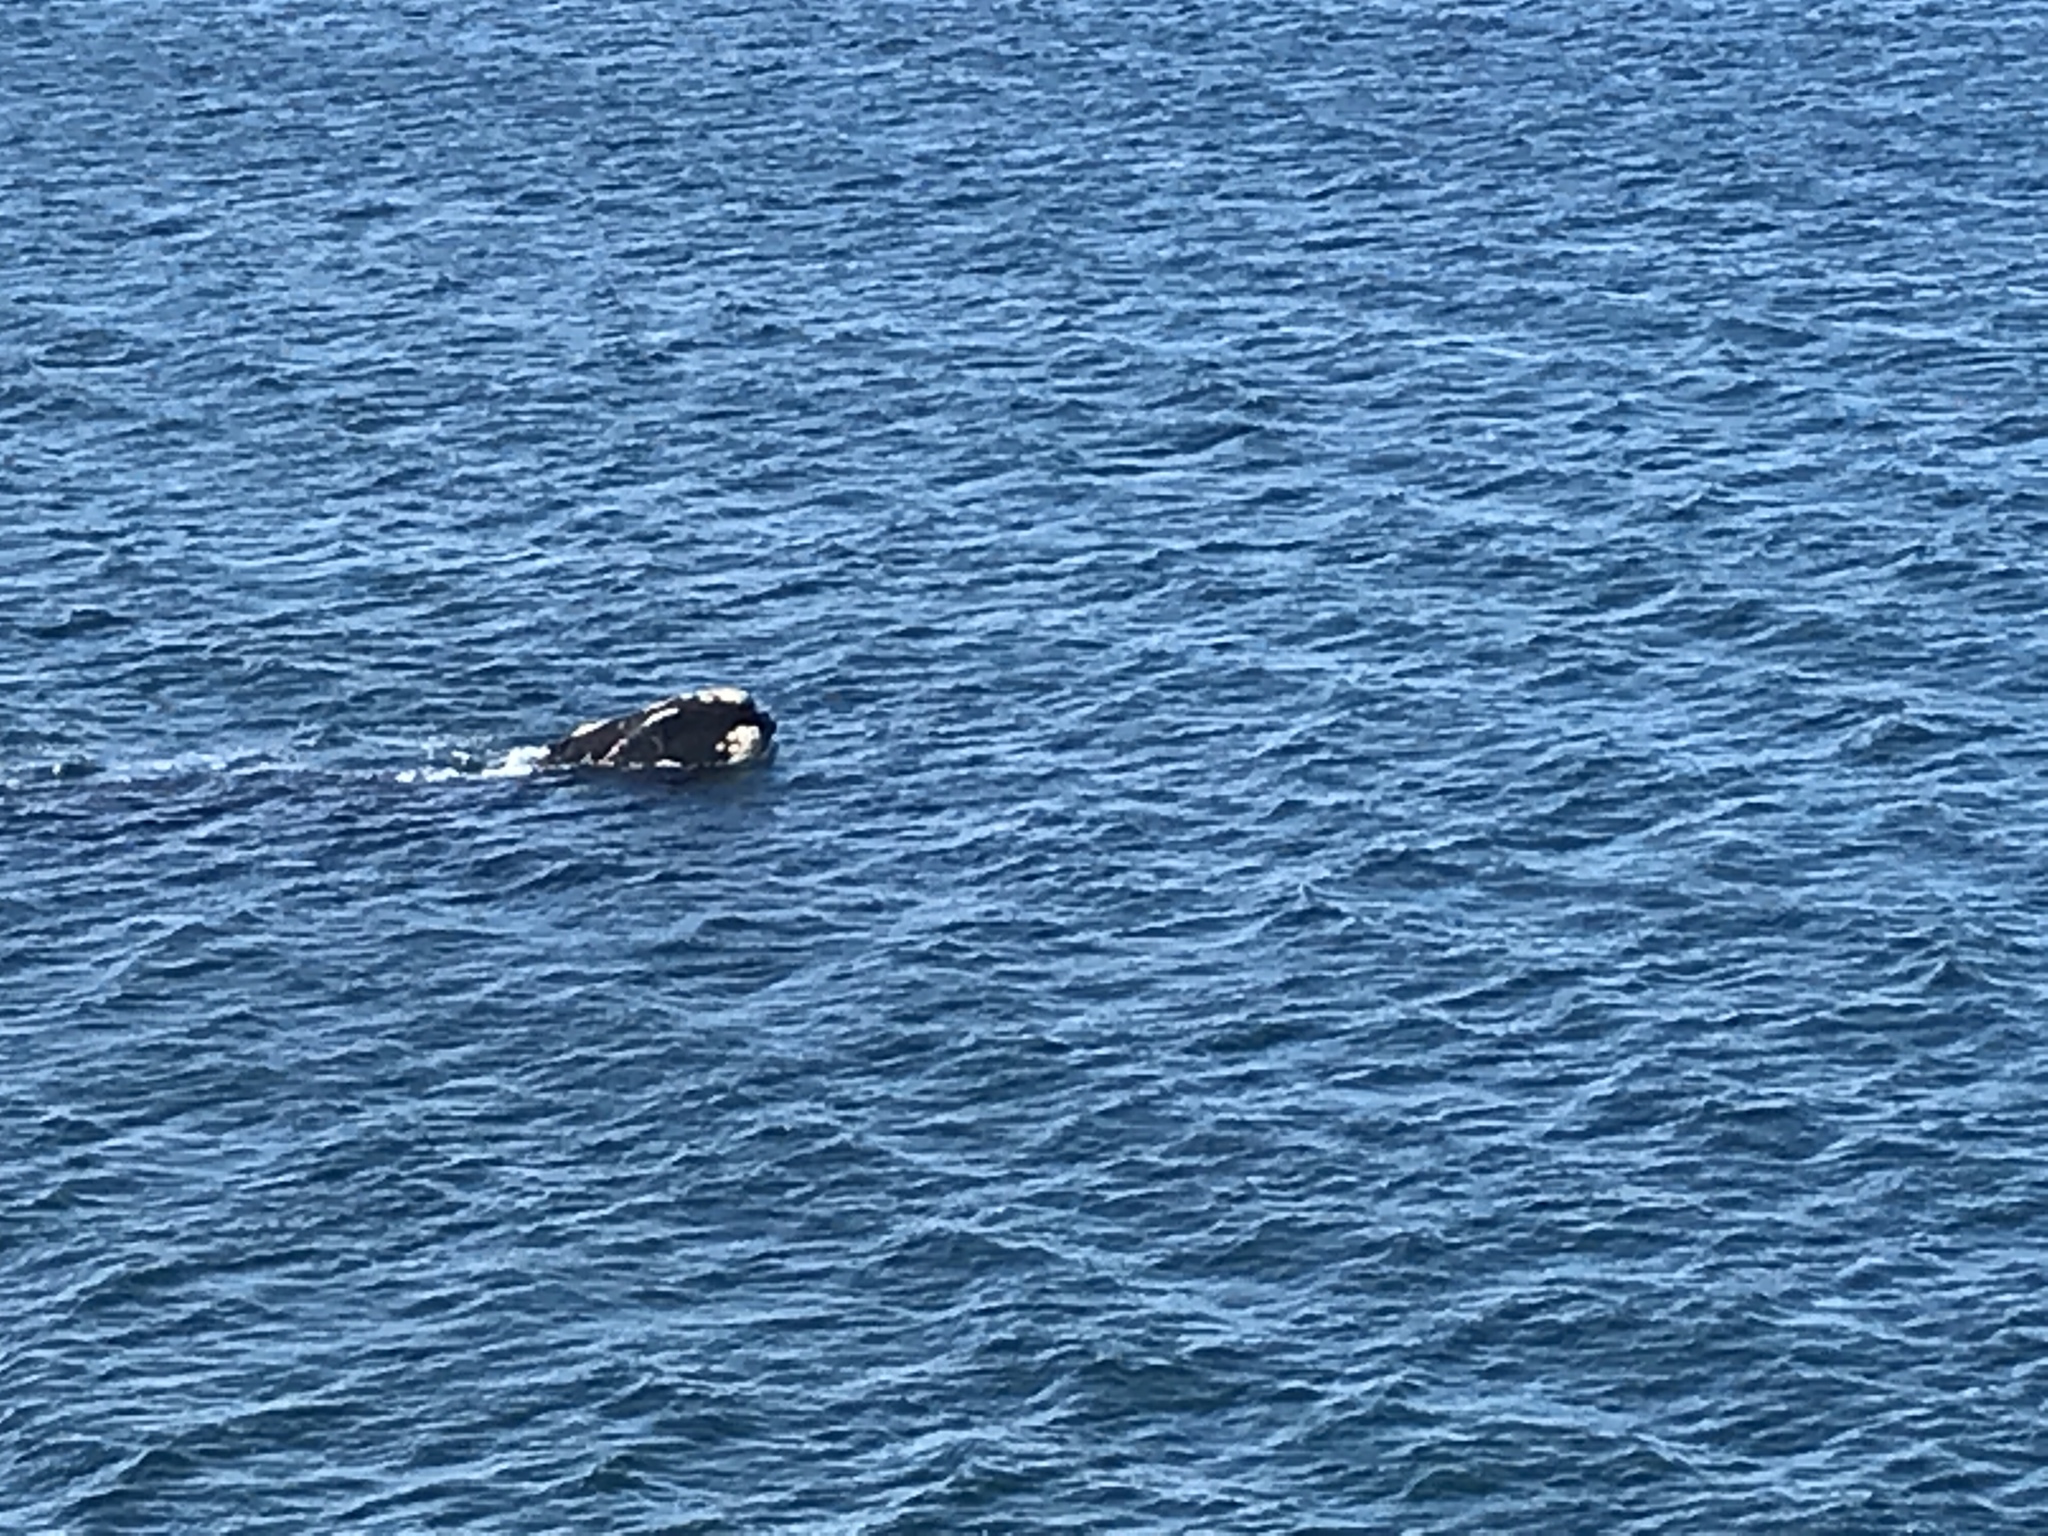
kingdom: Animalia
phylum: Chordata
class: Mammalia
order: Cetacea
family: Balaenidae
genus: Eubalaena
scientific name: Eubalaena australis
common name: Southern right whale
